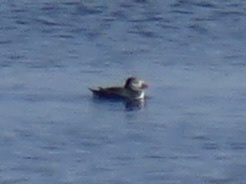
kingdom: Animalia
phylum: Chordata
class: Aves
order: Charadriiformes
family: Alcidae
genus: Fratercula
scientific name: Fratercula arctica
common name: Atlantic puffin
